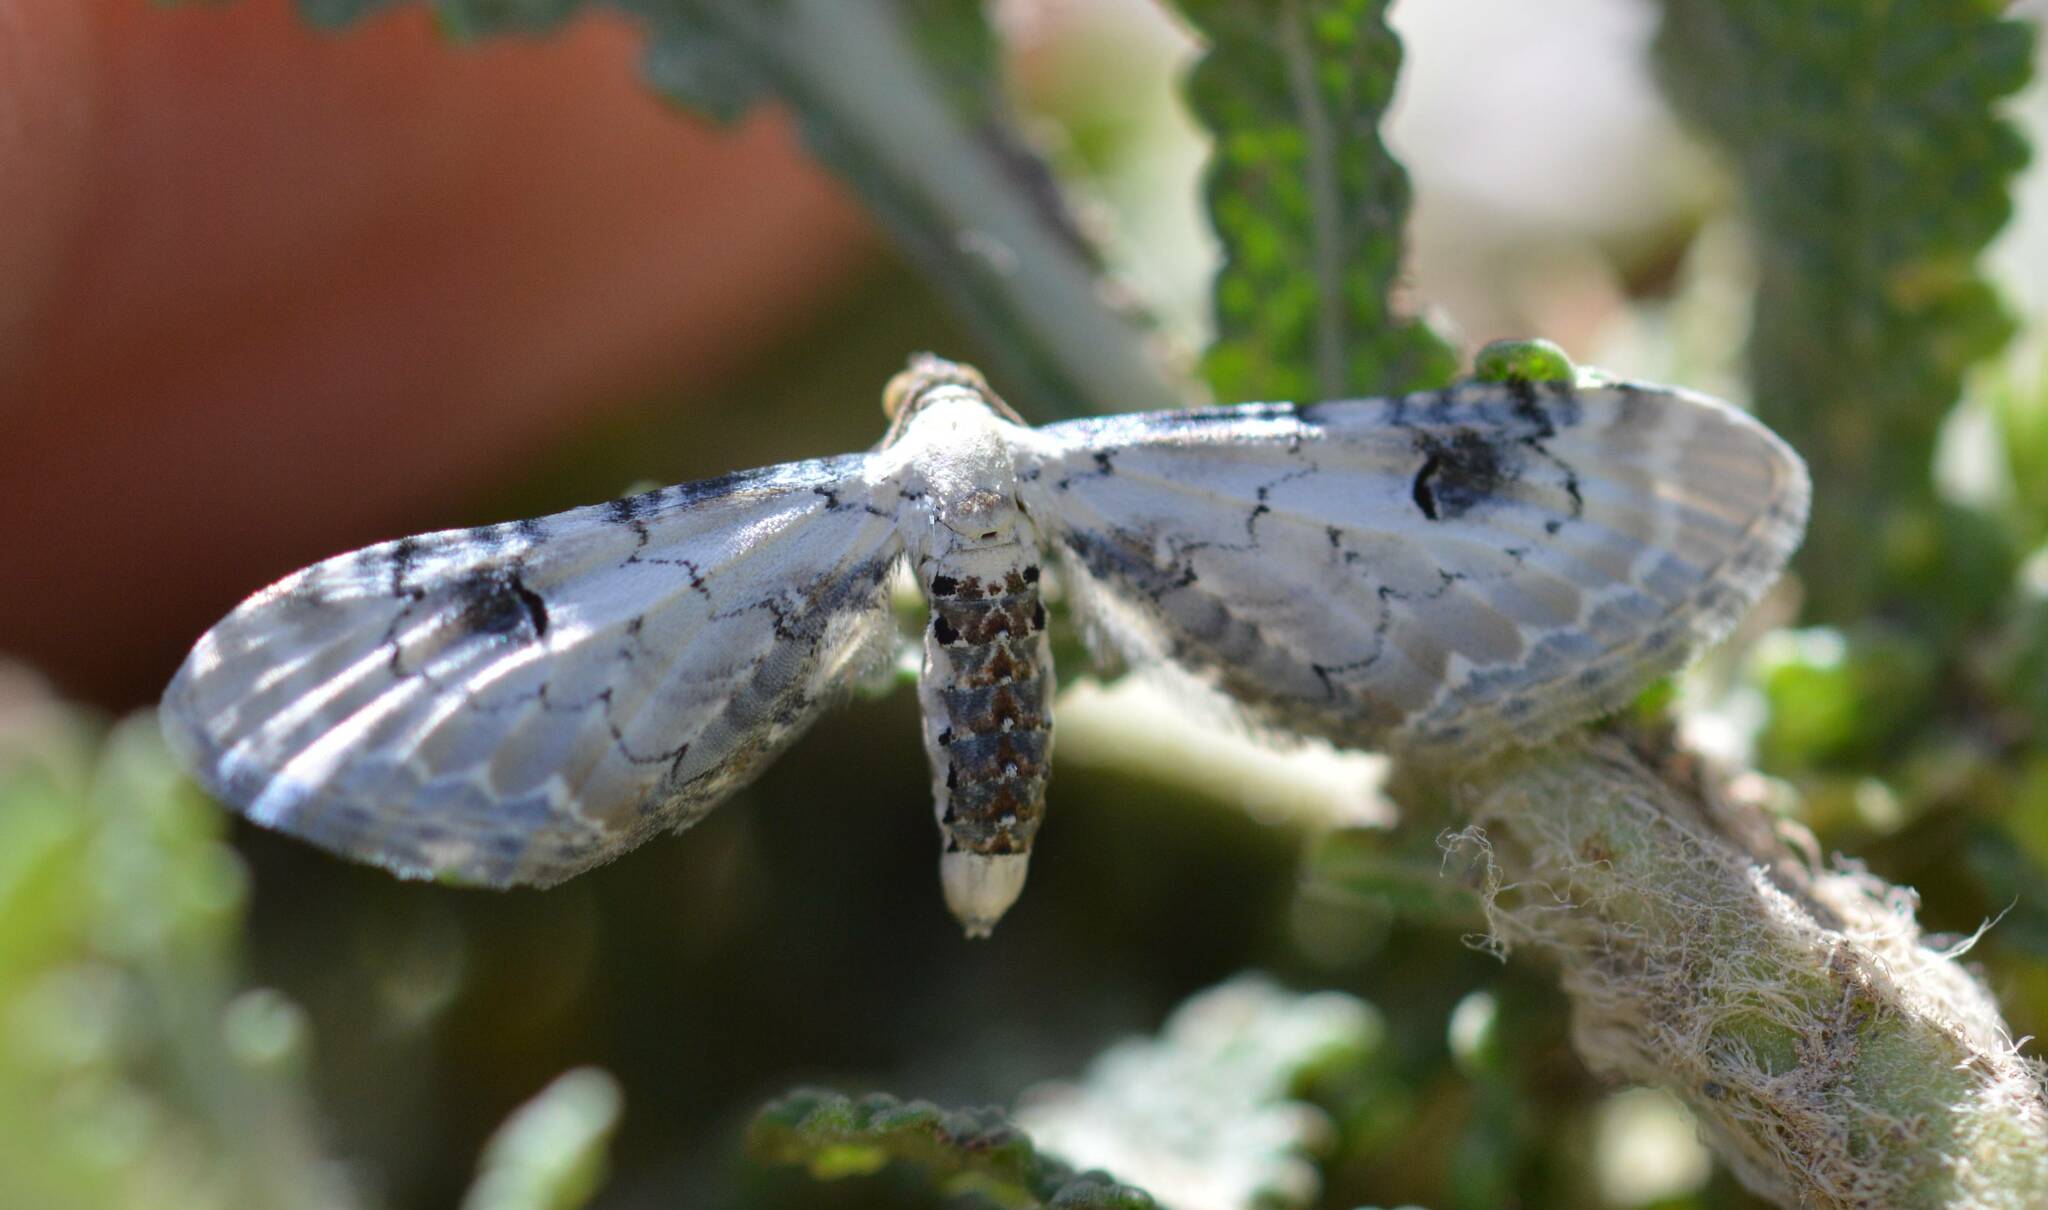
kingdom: Animalia
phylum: Arthropoda
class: Insecta
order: Lepidoptera
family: Geometridae
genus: Eupithecia
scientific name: Eupithecia centaureata
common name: Lime-speck pug
